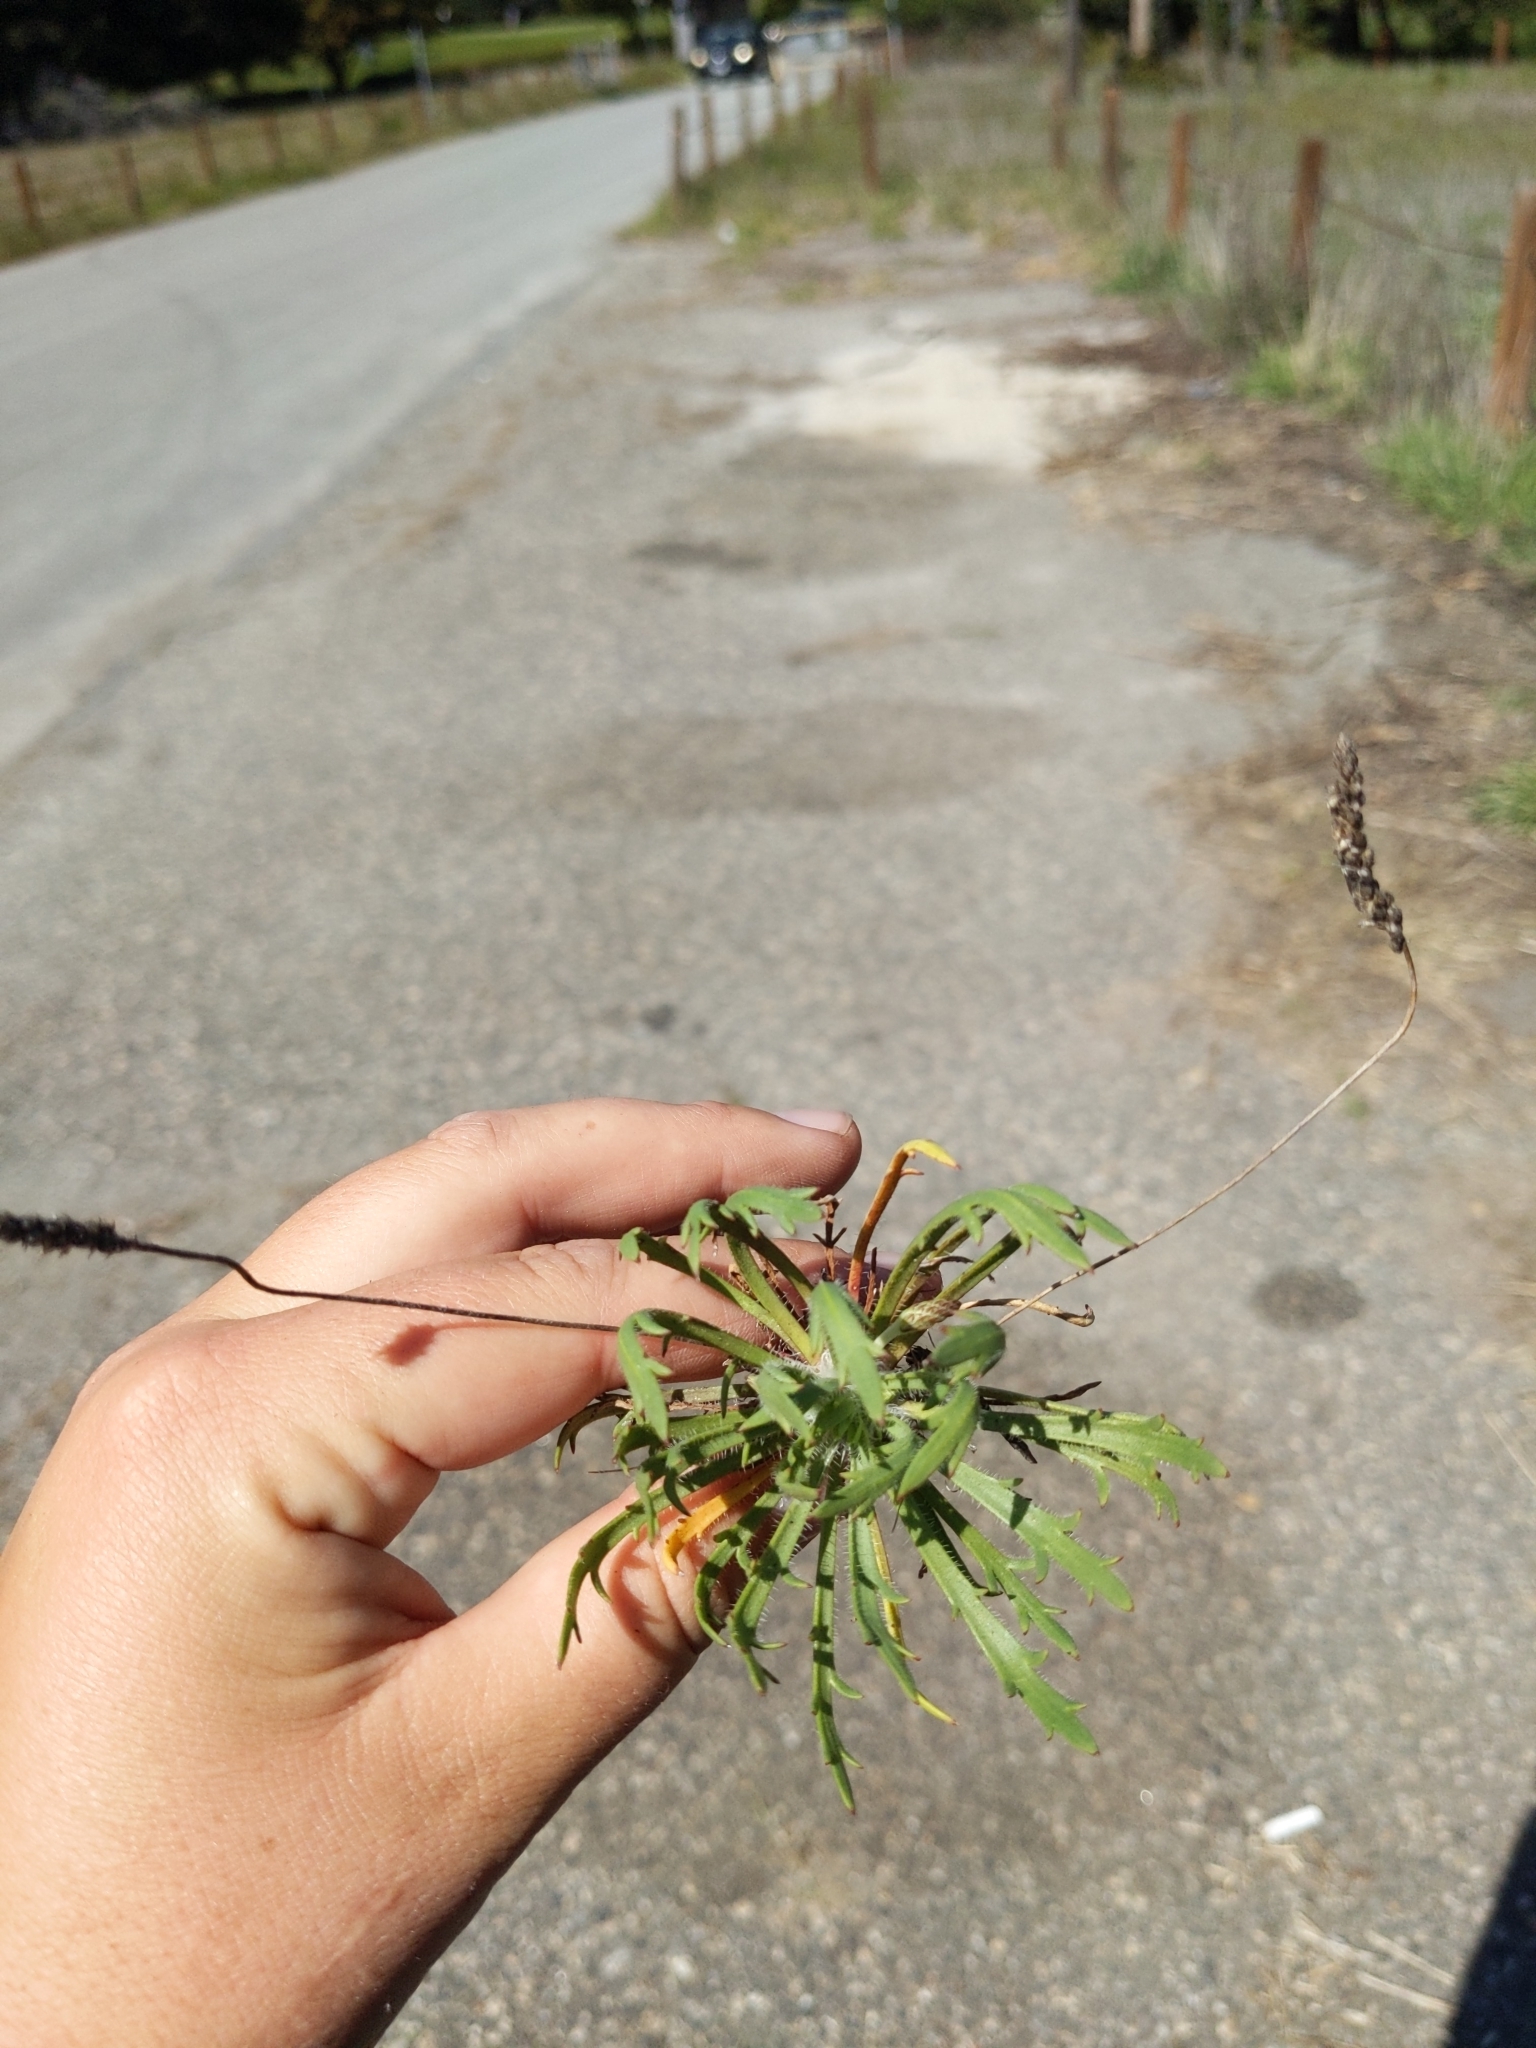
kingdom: Plantae
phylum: Tracheophyta
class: Magnoliopsida
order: Lamiales
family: Plantaginaceae
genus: Plantago
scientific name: Plantago coronopus
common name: Buck's-horn plantain
